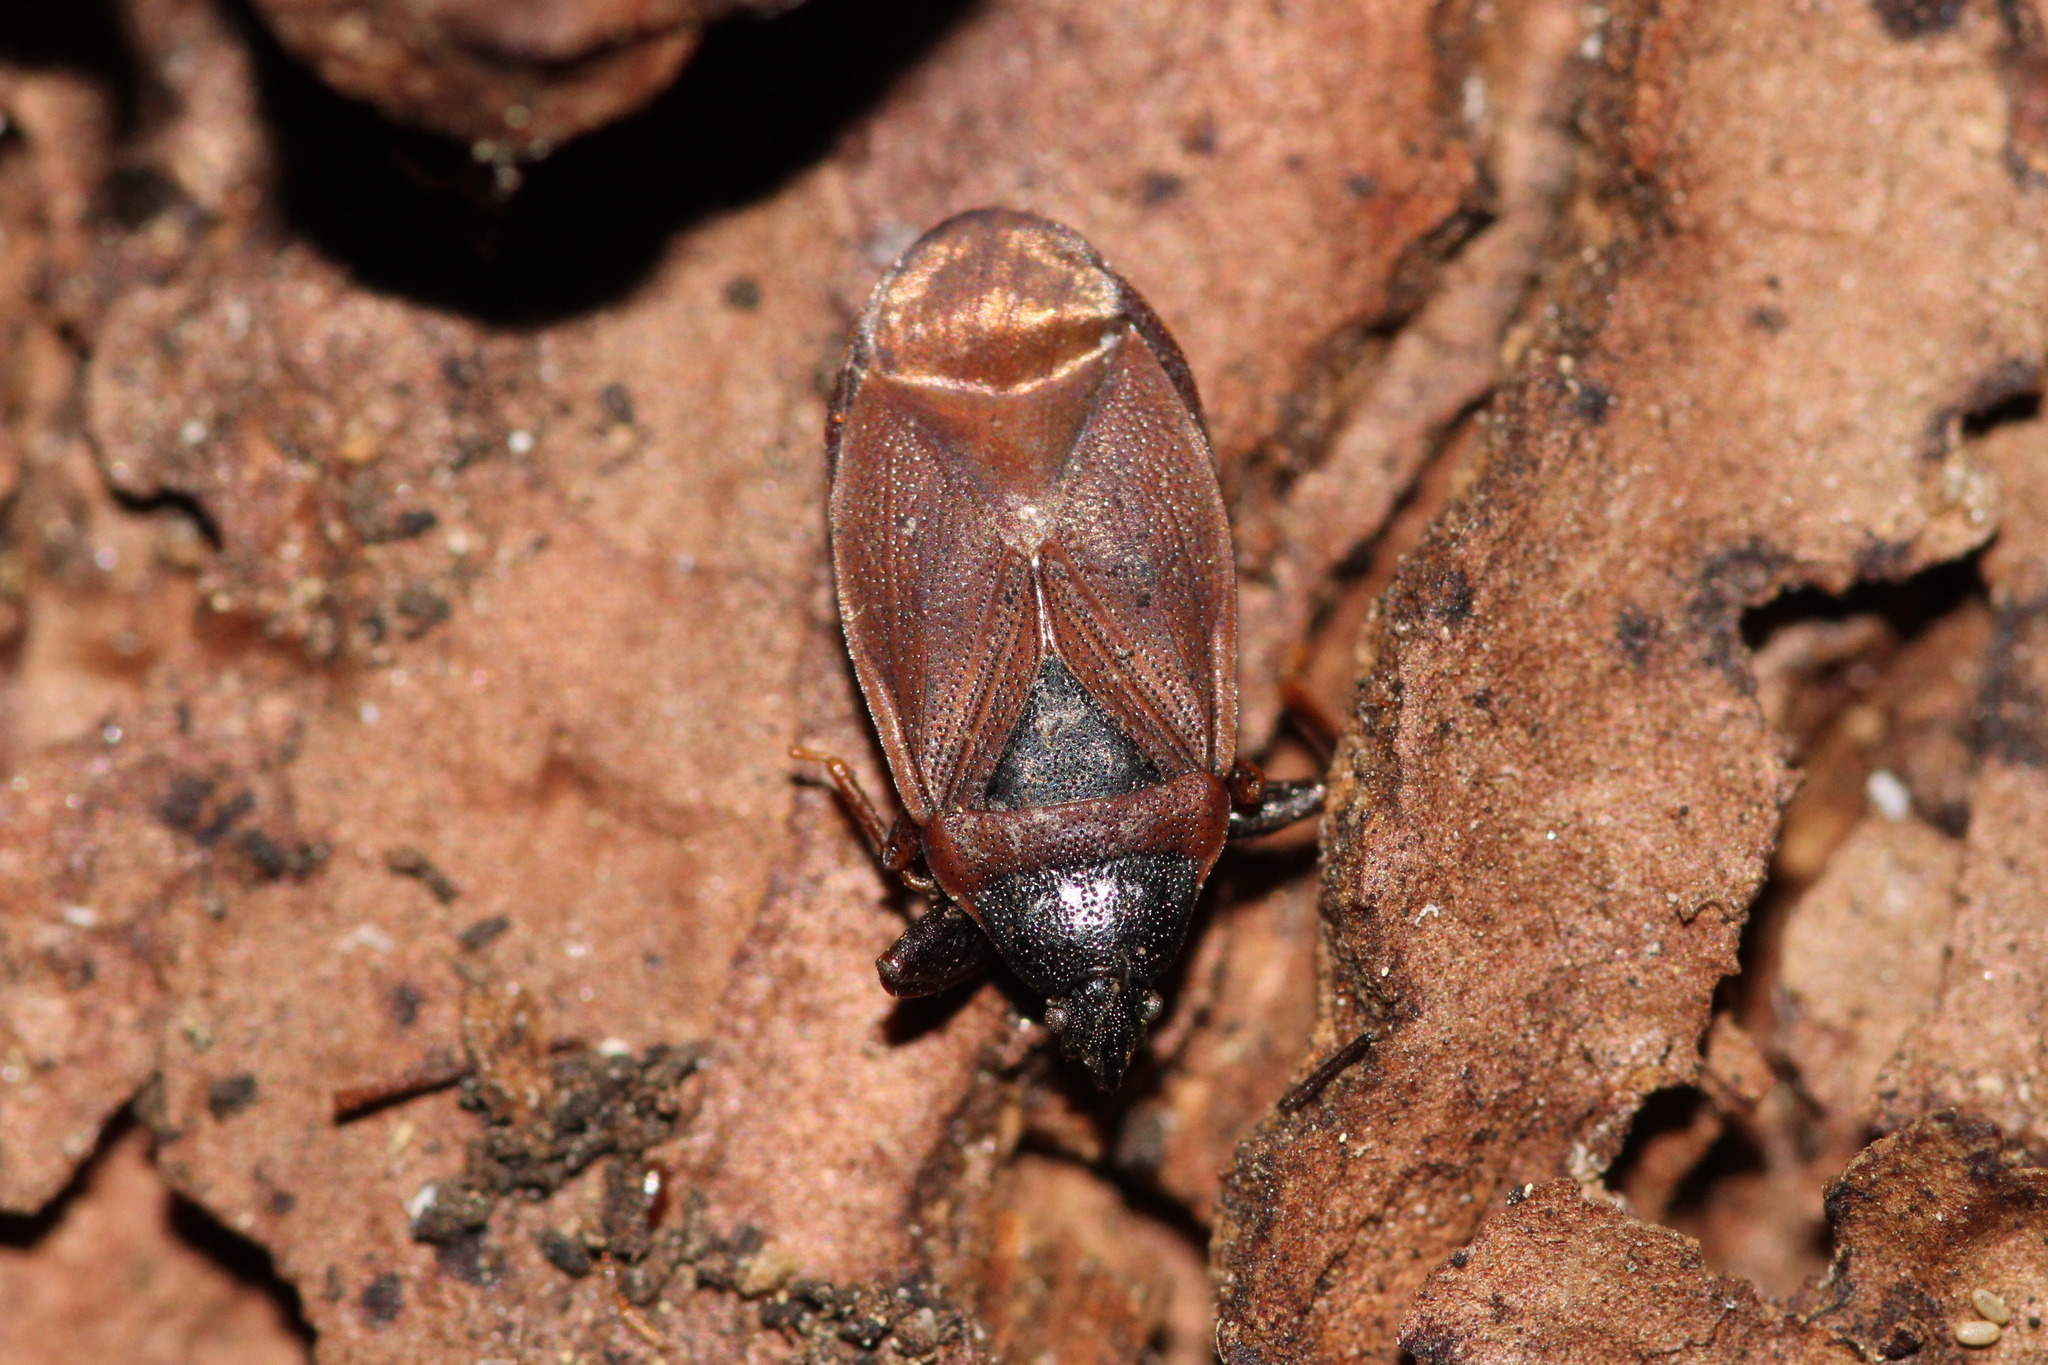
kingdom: Animalia
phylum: Arthropoda
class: Insecta
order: Hemiptera
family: Rhyparochromidae
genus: Gastrodes
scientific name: Gastrodes grossipes
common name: Pine cone bug
